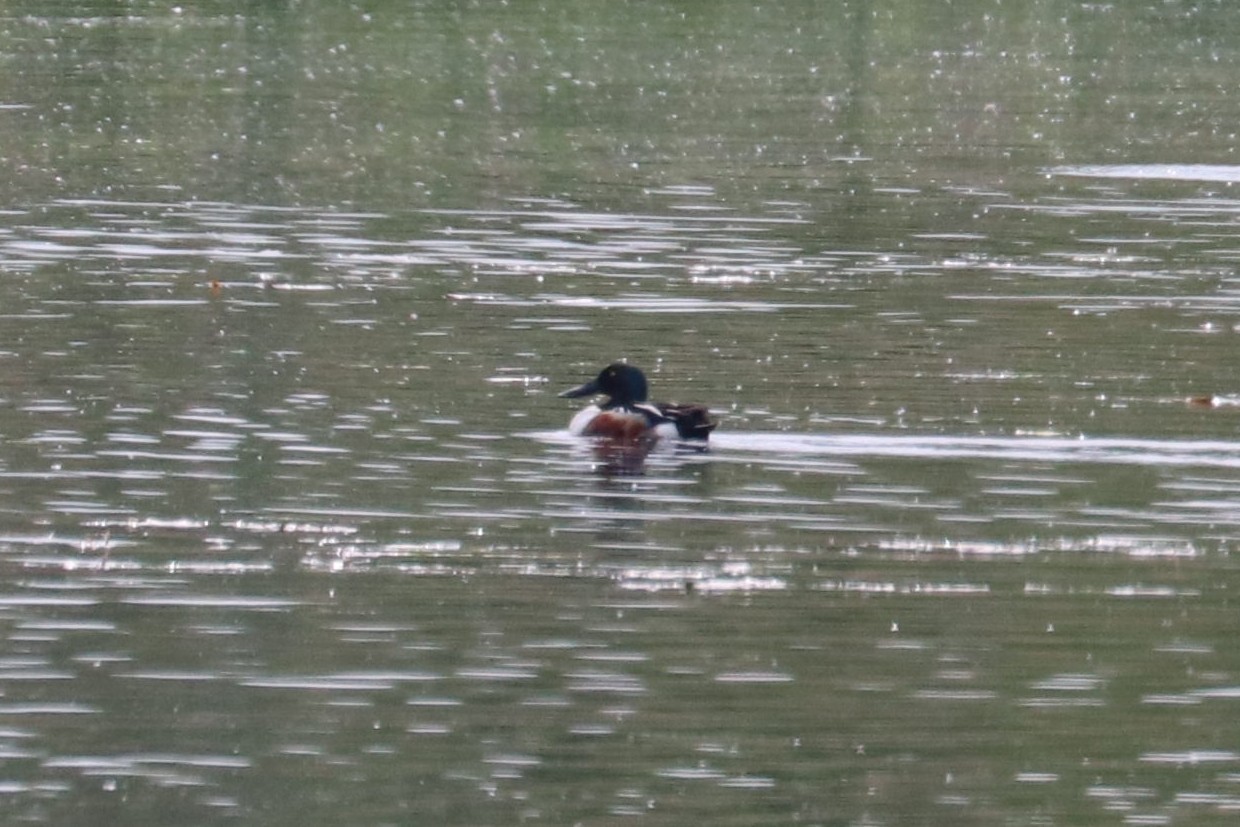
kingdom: Animalia
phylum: Chordata
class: Aves
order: Anseriformes
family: Anatidae
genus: Spatula
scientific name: Spatula clypeata
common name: Northern shoveler
